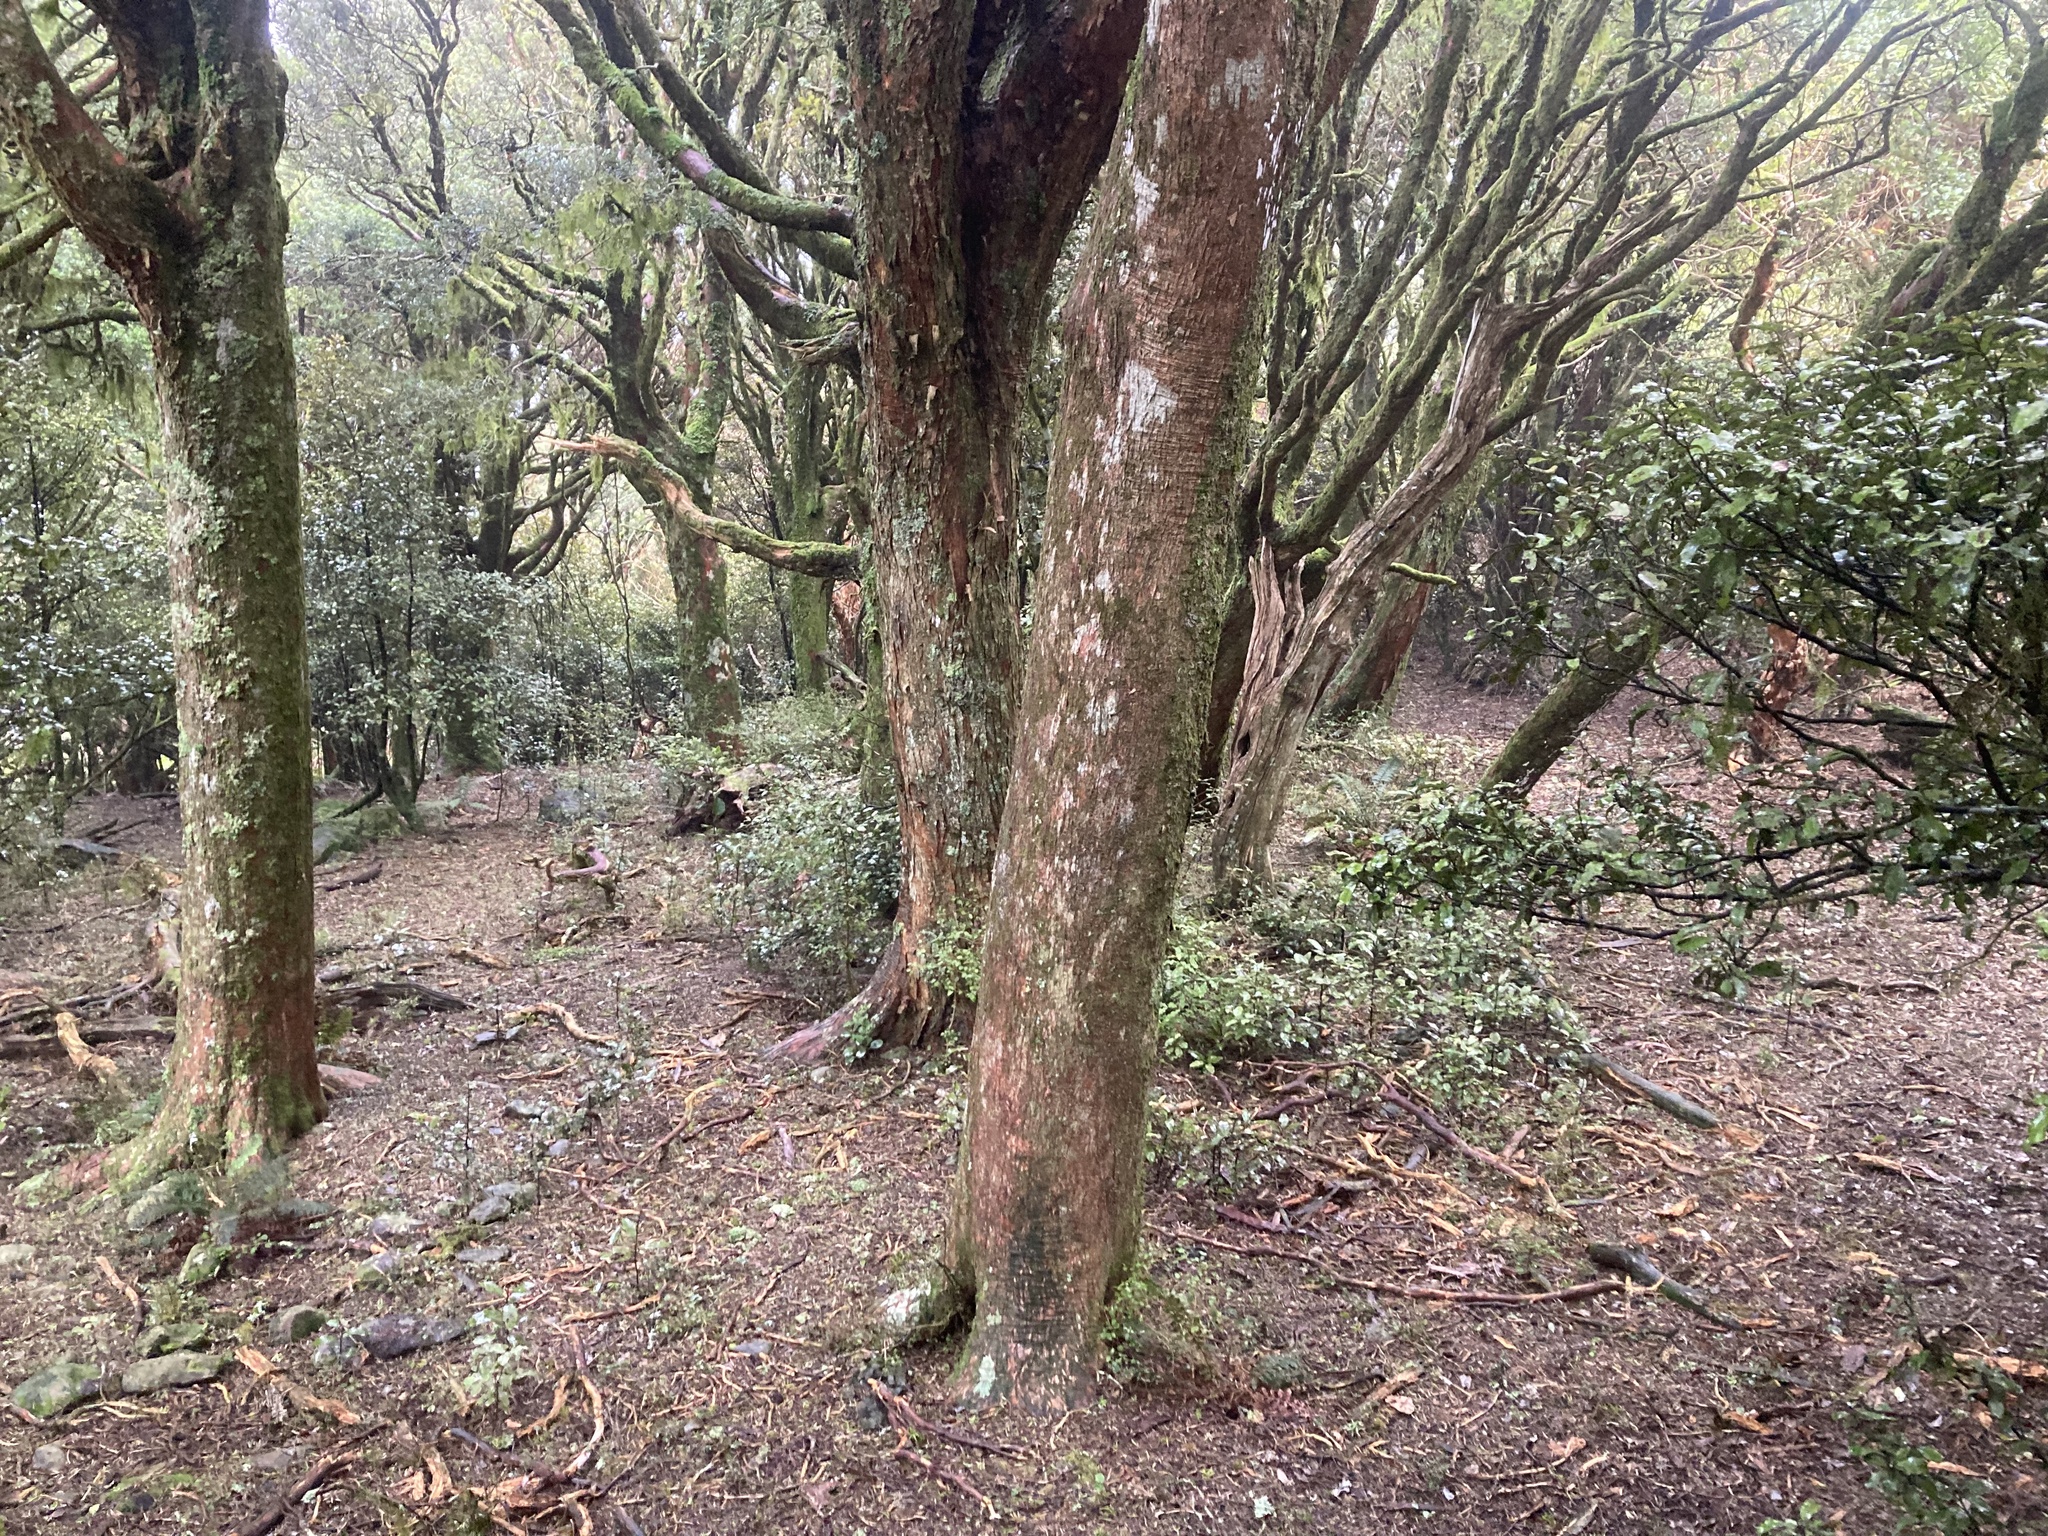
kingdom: Plantae
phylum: Tracheophyta
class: Pinopsida
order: Pinales
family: Podocarpaceae
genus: Podocarpus
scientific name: Podocarpus laetus
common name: Hall's totara
